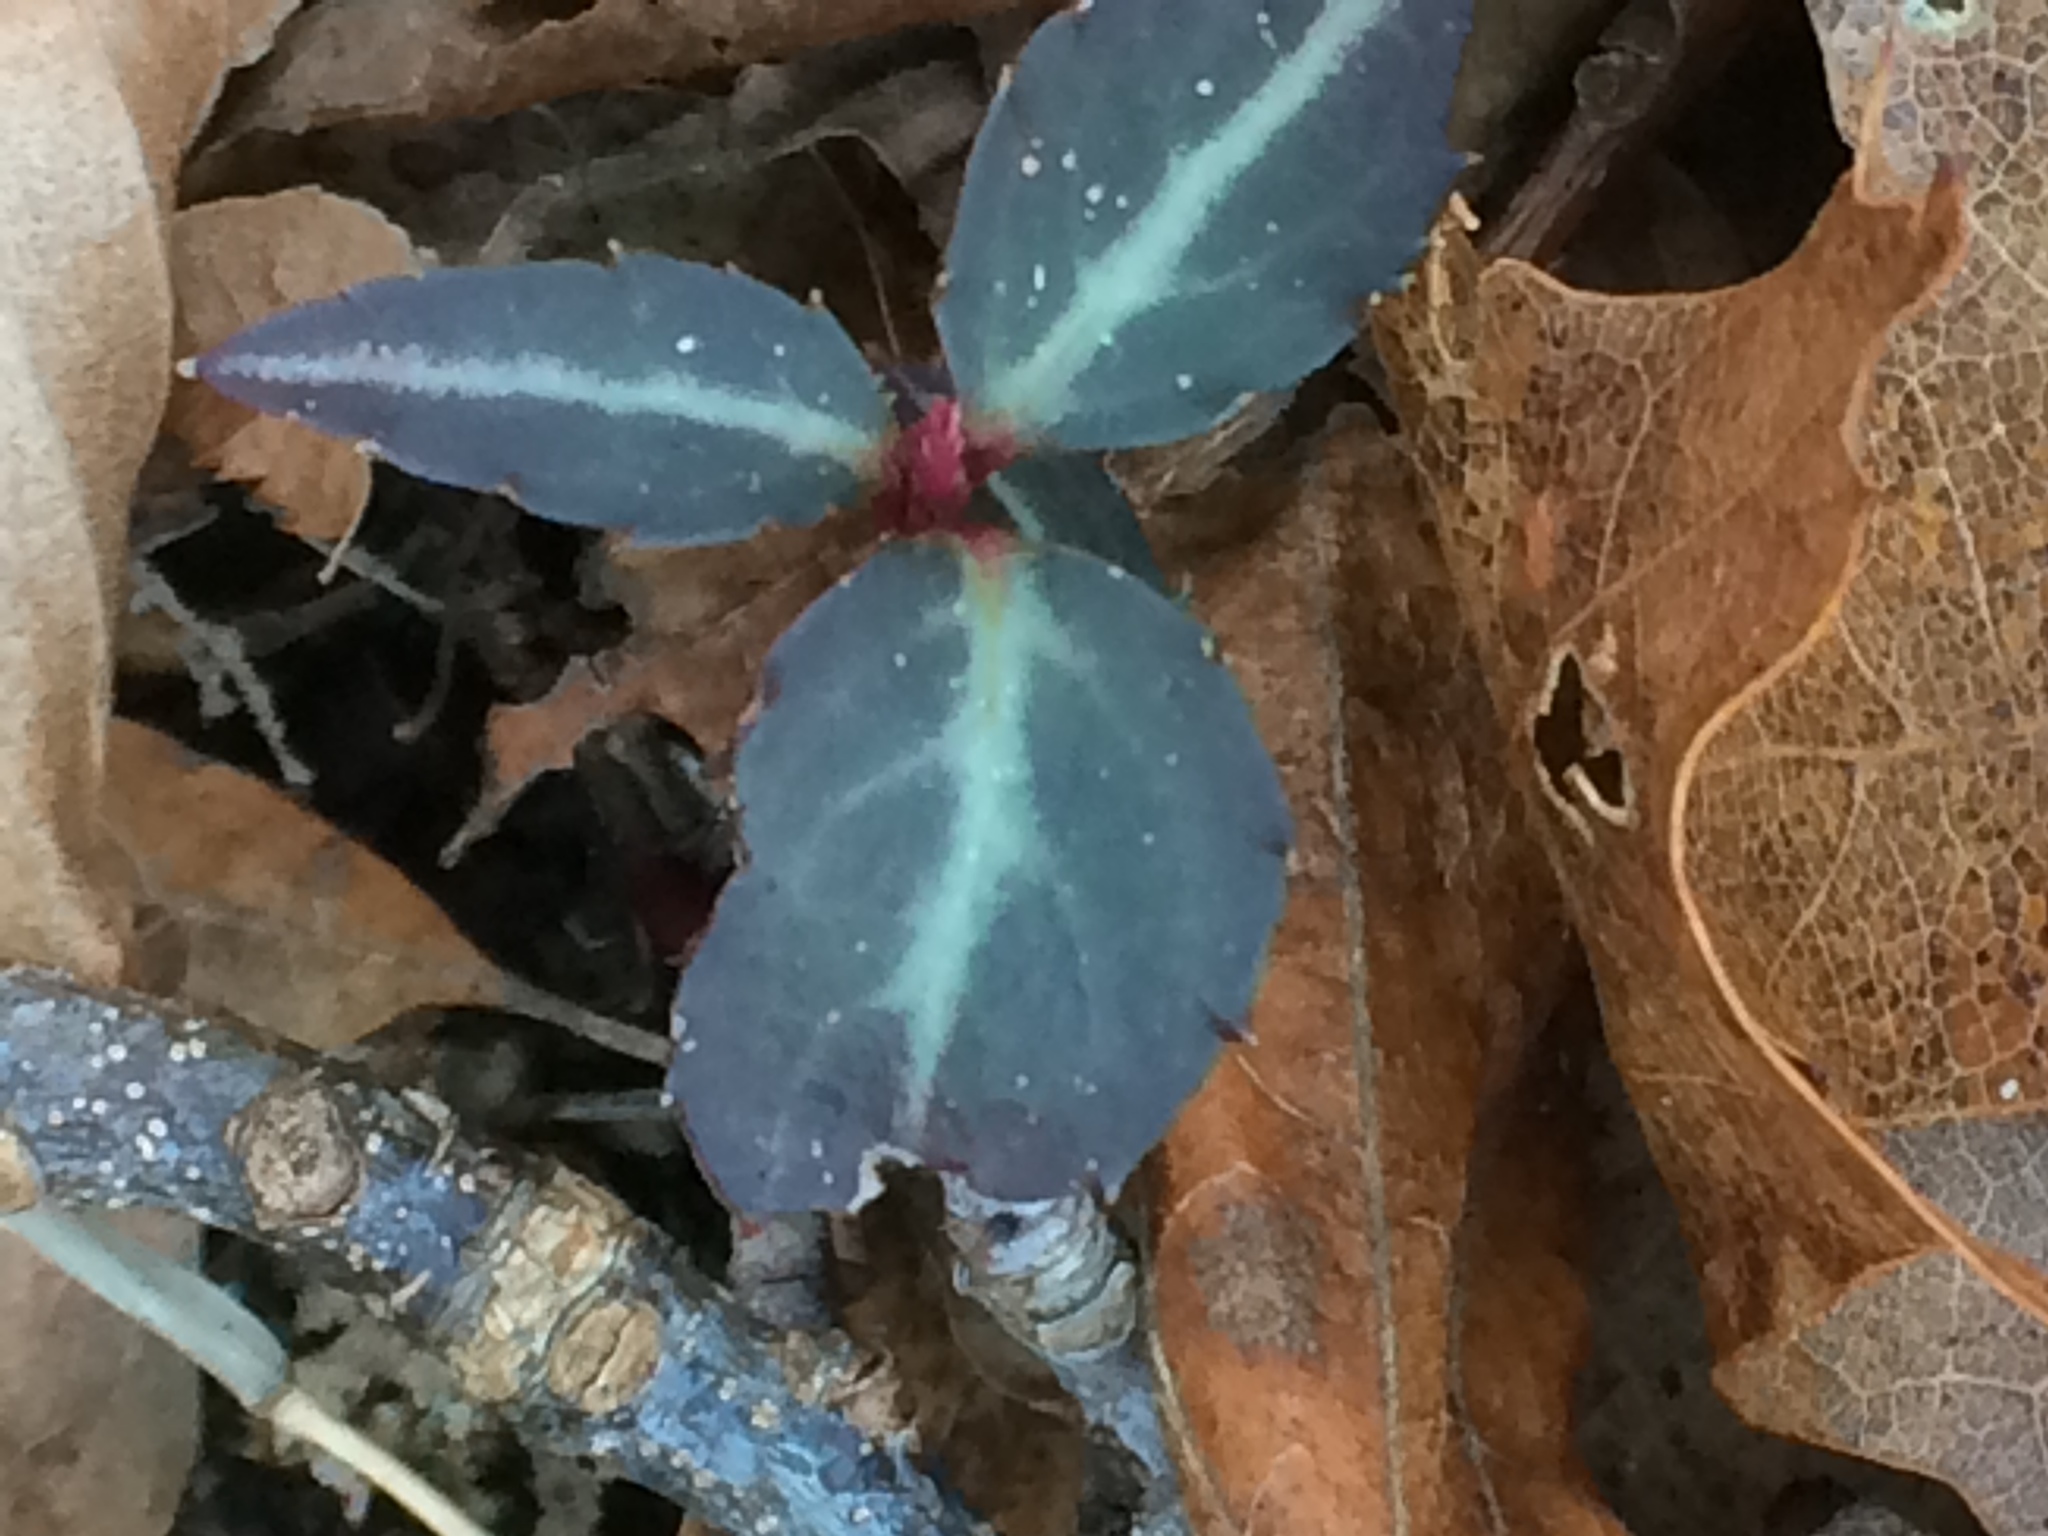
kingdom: Plantae
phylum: Tracheophyta
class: Magnoliopsida
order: Ericales
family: Ericaceae
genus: Chimaphila
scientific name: Chimaphila maculata
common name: Spotted pipsissewa
